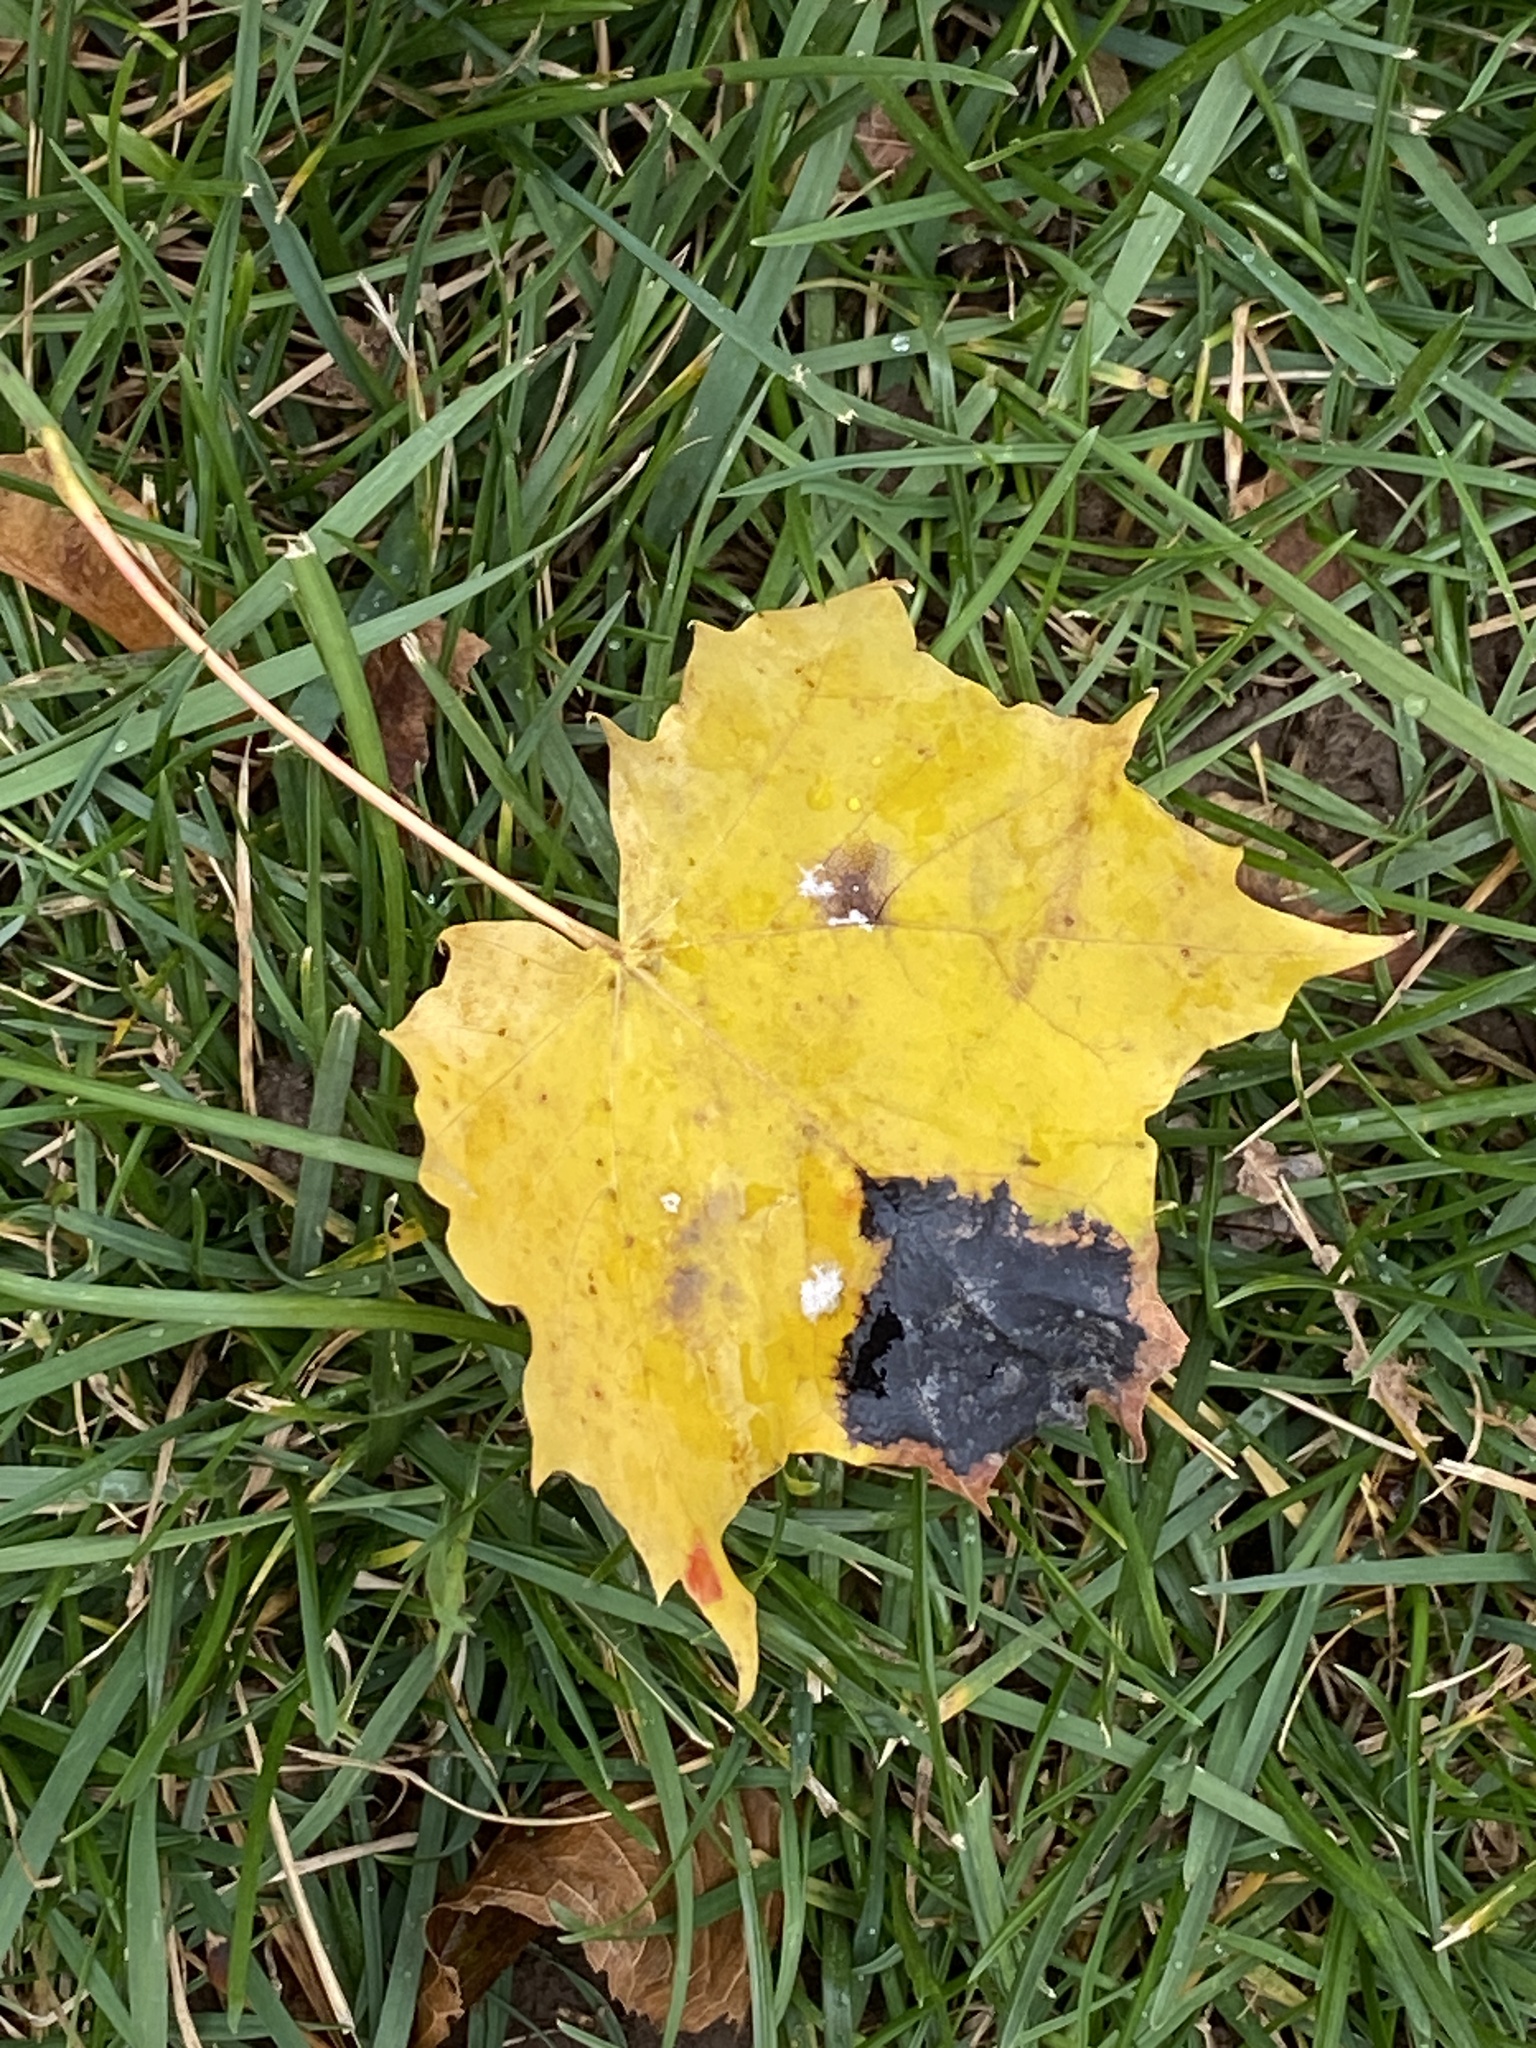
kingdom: Fungi
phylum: Ascomycota
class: Leotiomycetes
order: Rhytismatales
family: Rhytismataceae
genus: Rhytisma
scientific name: Rhytisma acerinum
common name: European tar spot
